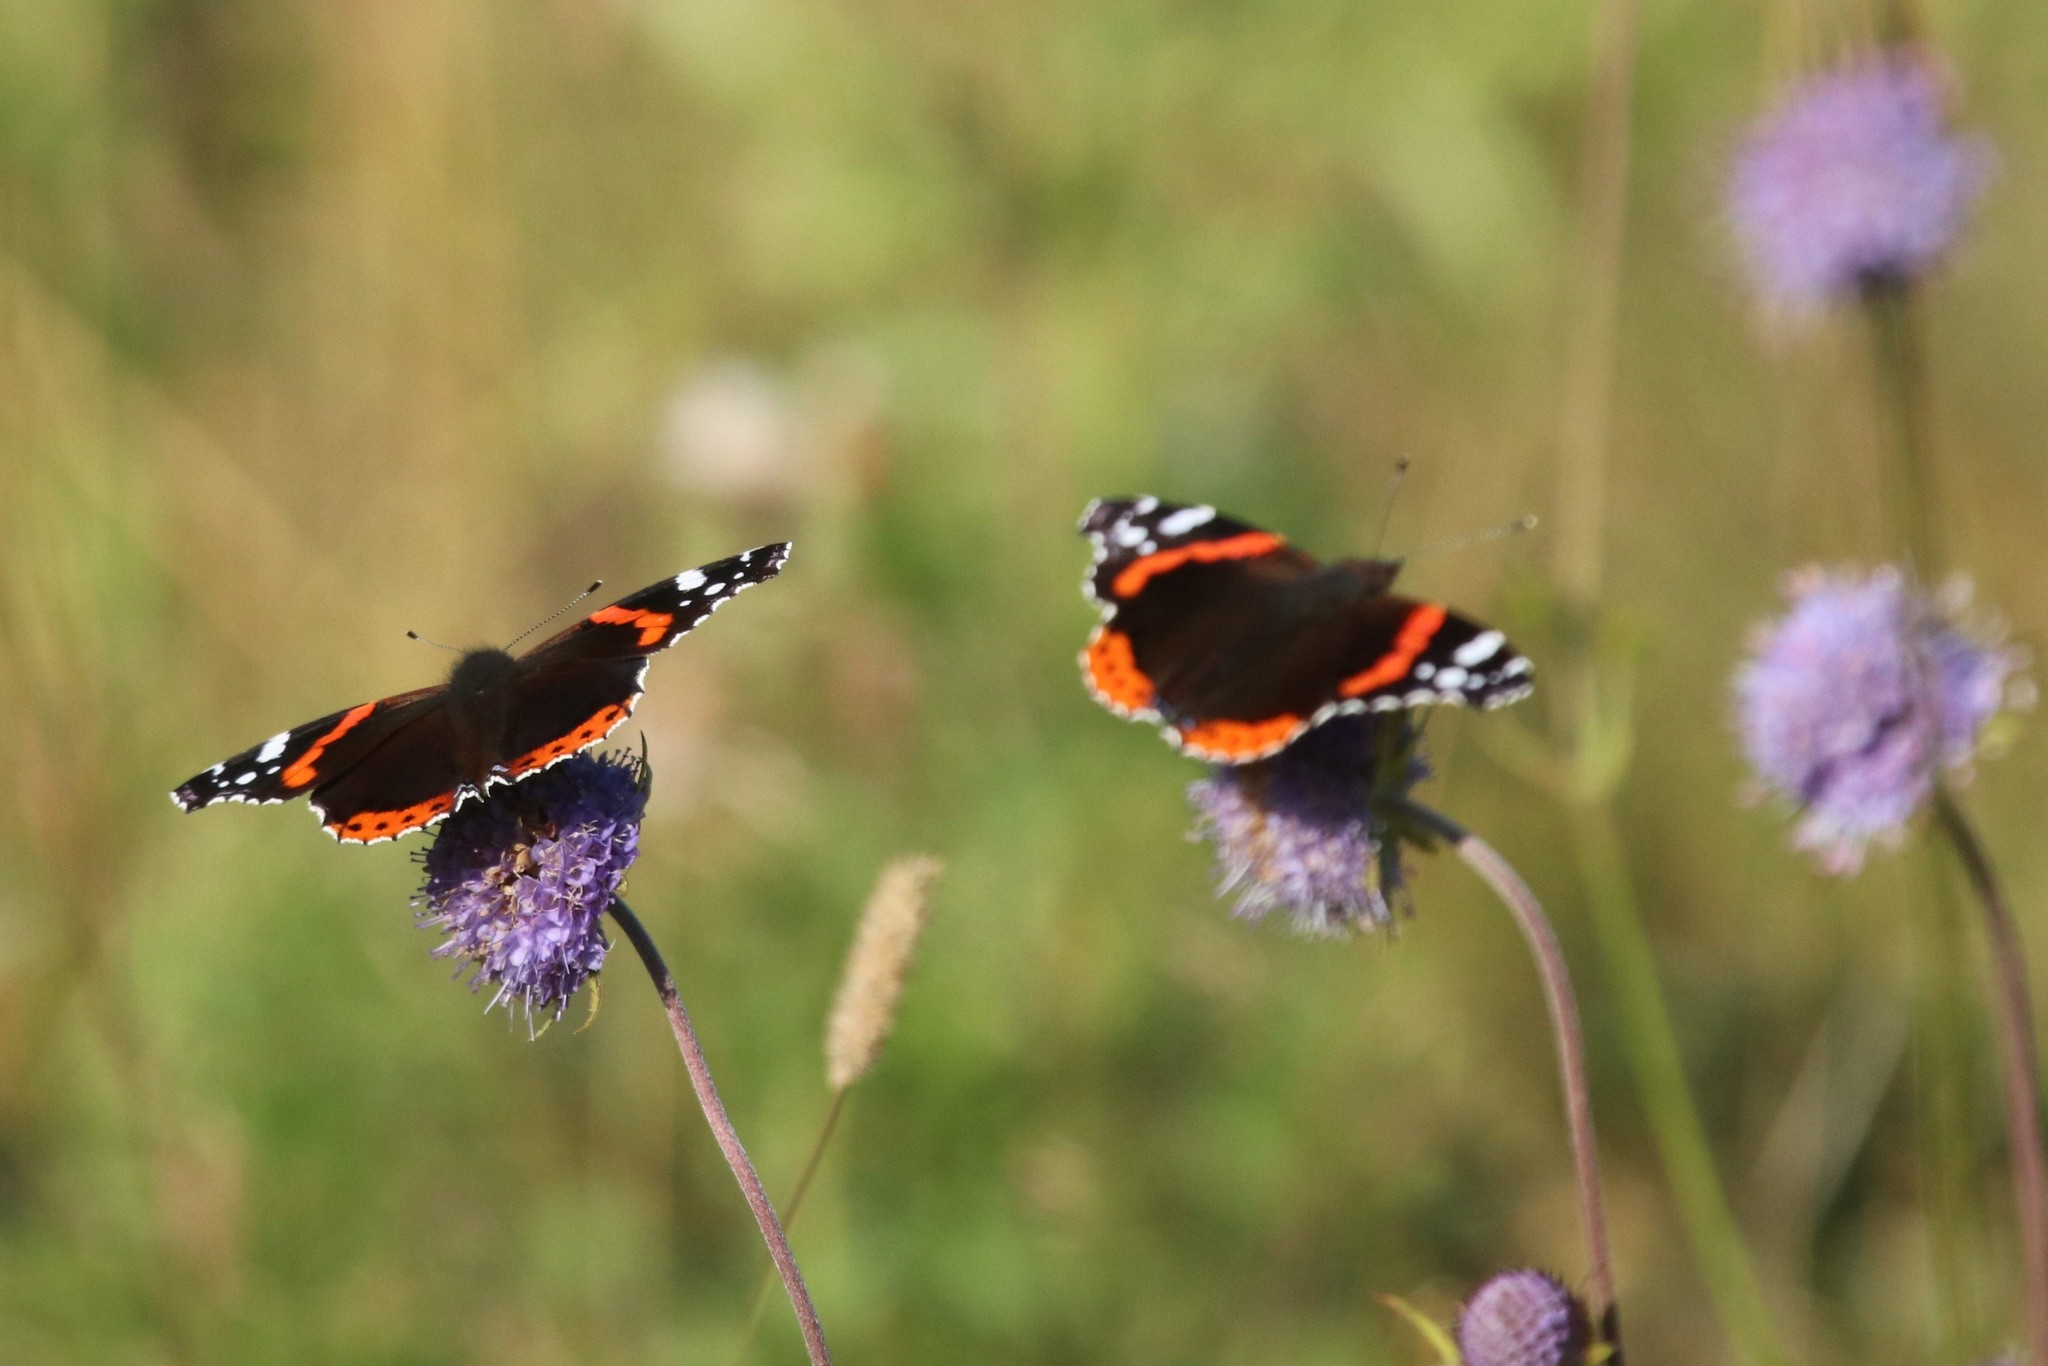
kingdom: Animalia
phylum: Arthropoda
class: Insecta
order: Lepidoptera
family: Nymphalidae
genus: Vanessa
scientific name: Vanessa atalanta
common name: Red admiral
